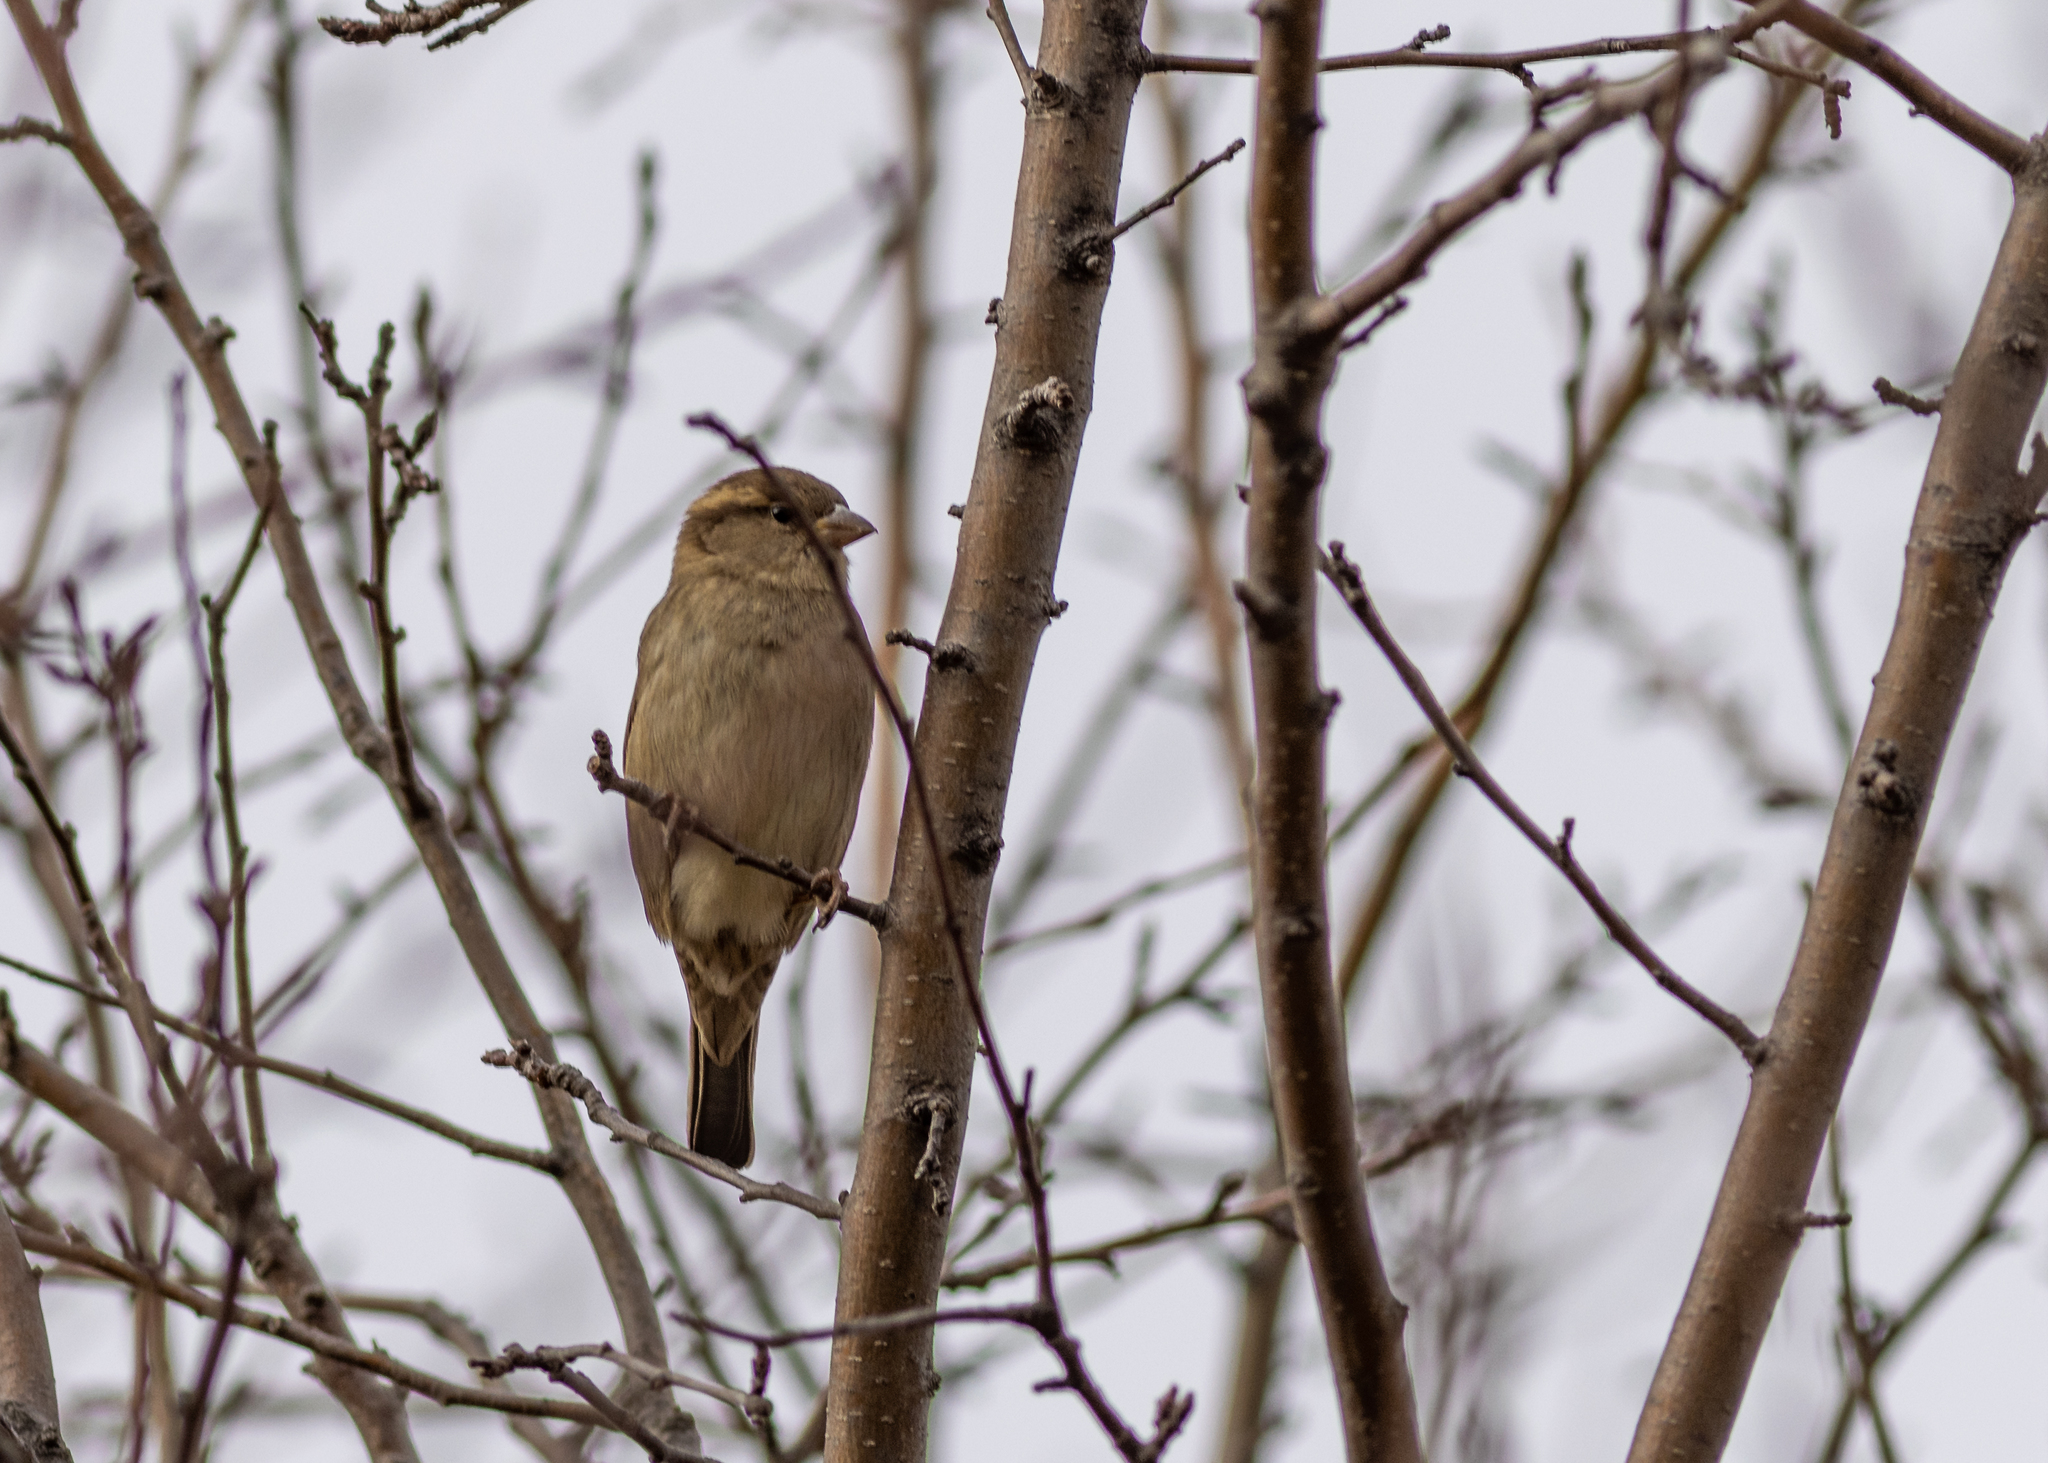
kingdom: Animalia
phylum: Chordata
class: Aves
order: Passeriformes
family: Passeridae
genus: Passer
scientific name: Passer domesticus
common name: House sparrow
